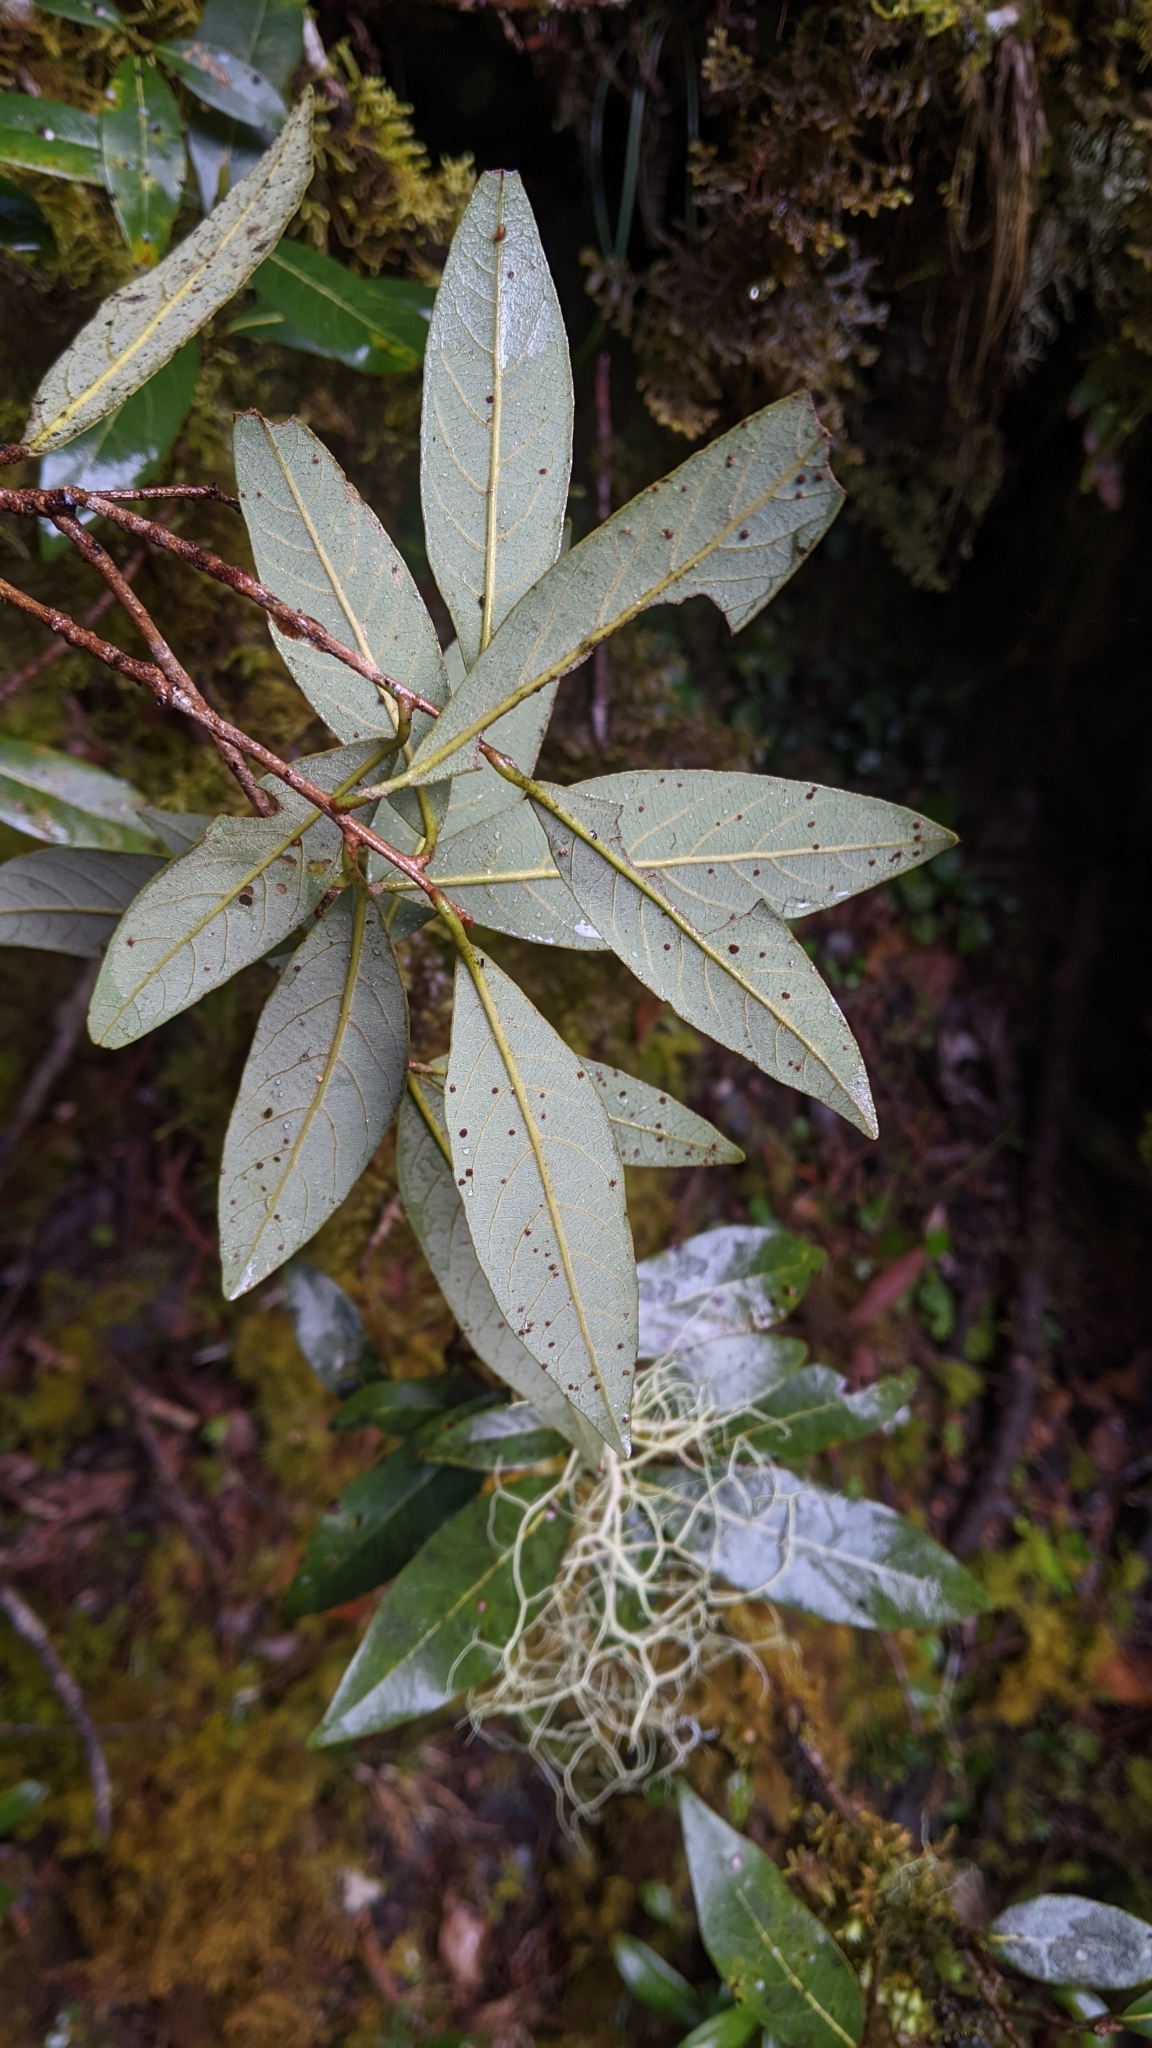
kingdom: Plantae
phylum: Tracheophyta
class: Magnoliopsida
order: Laurales
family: Lauraceae
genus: Litsea
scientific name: Litsea morrisonensis
